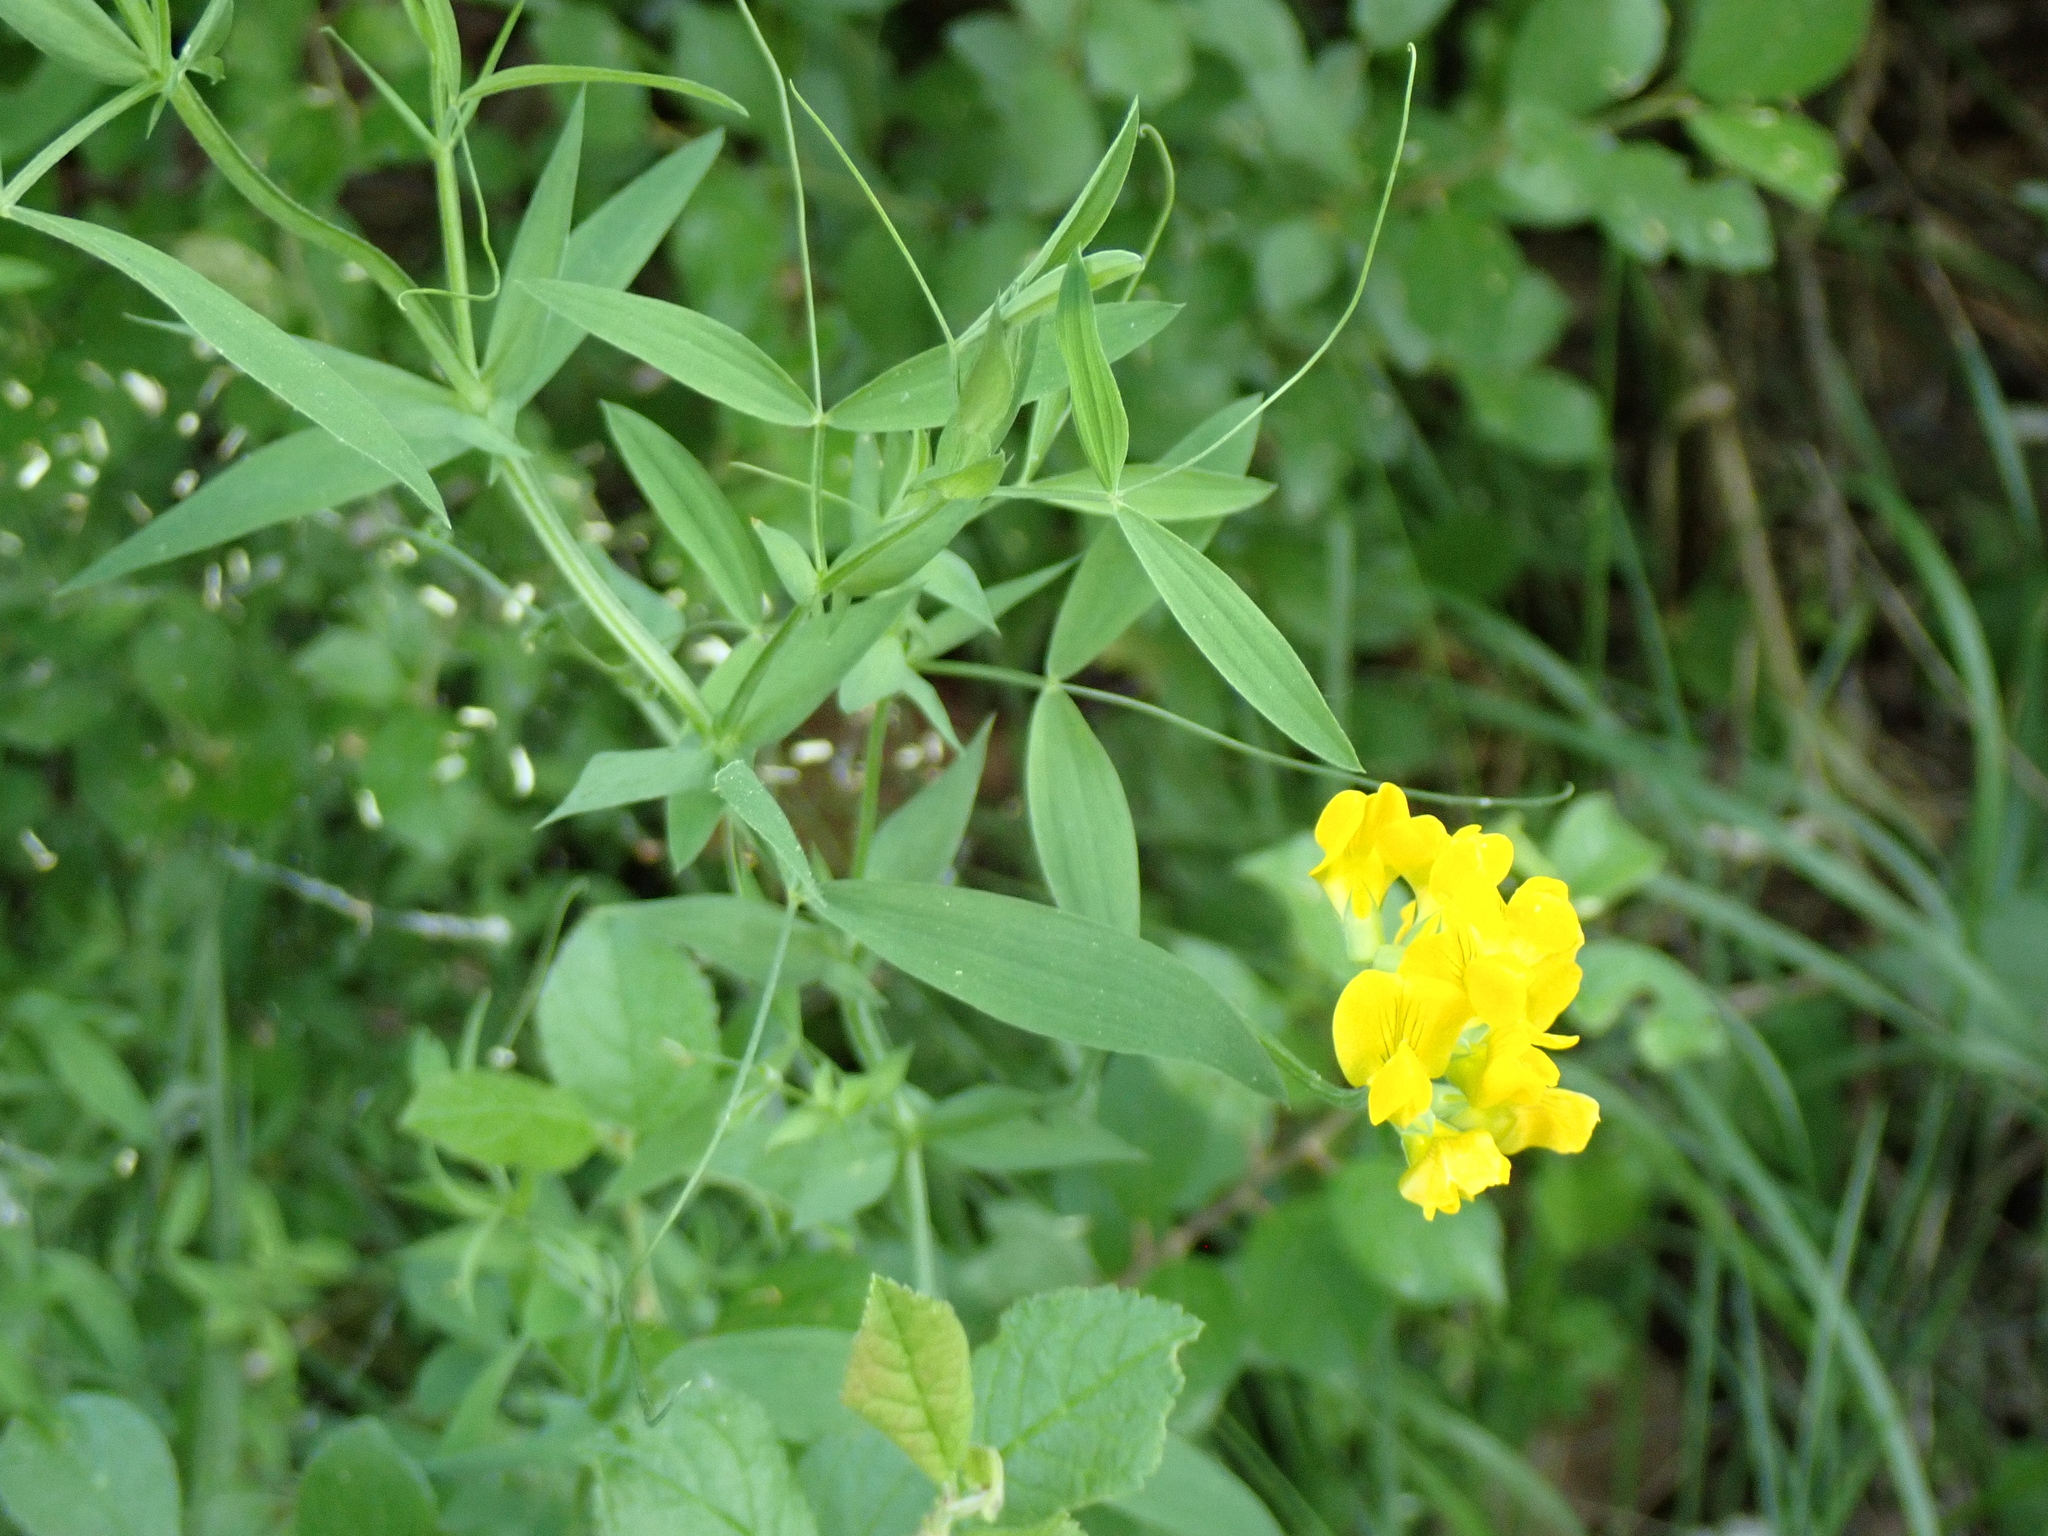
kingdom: Plantae
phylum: Tracheophyta
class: Magnoliopsida
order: Fabales
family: Fabaceae
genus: Lathyrus
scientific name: Lathyrus pratensis
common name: Meadow vetchling
